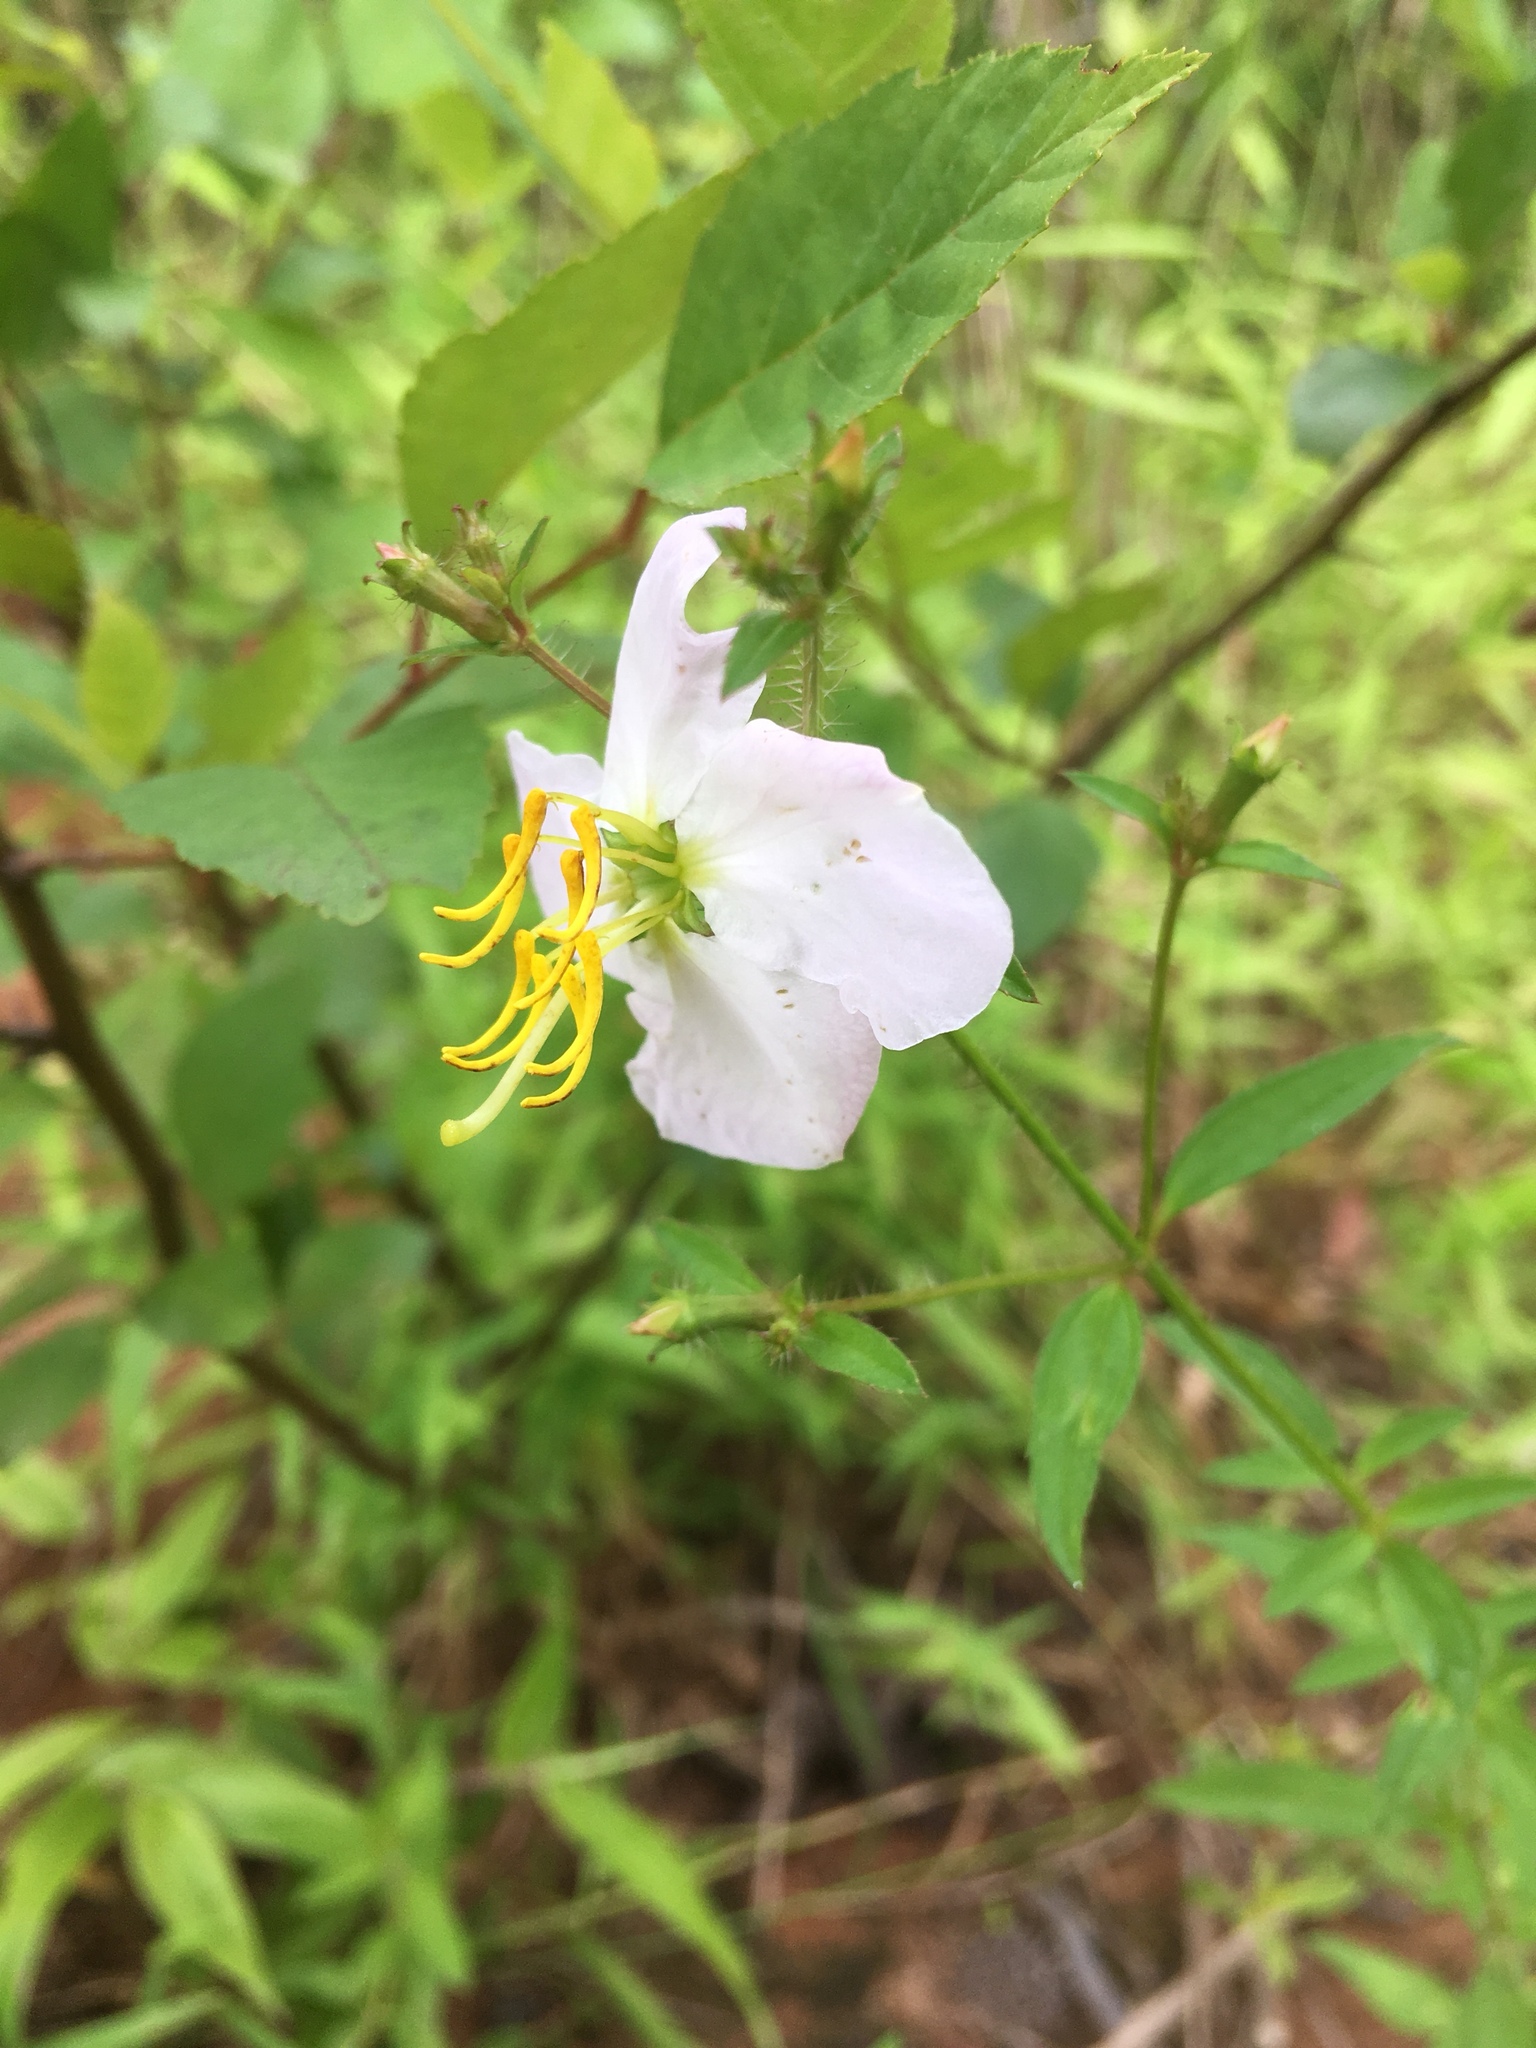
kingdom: Plantae
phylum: Tracheophyta
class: Magnoliopsida
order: Myrtales
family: Melastomataceae
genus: Rhexia
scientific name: Rhexia mariana
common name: Dull meadow-pitcher
